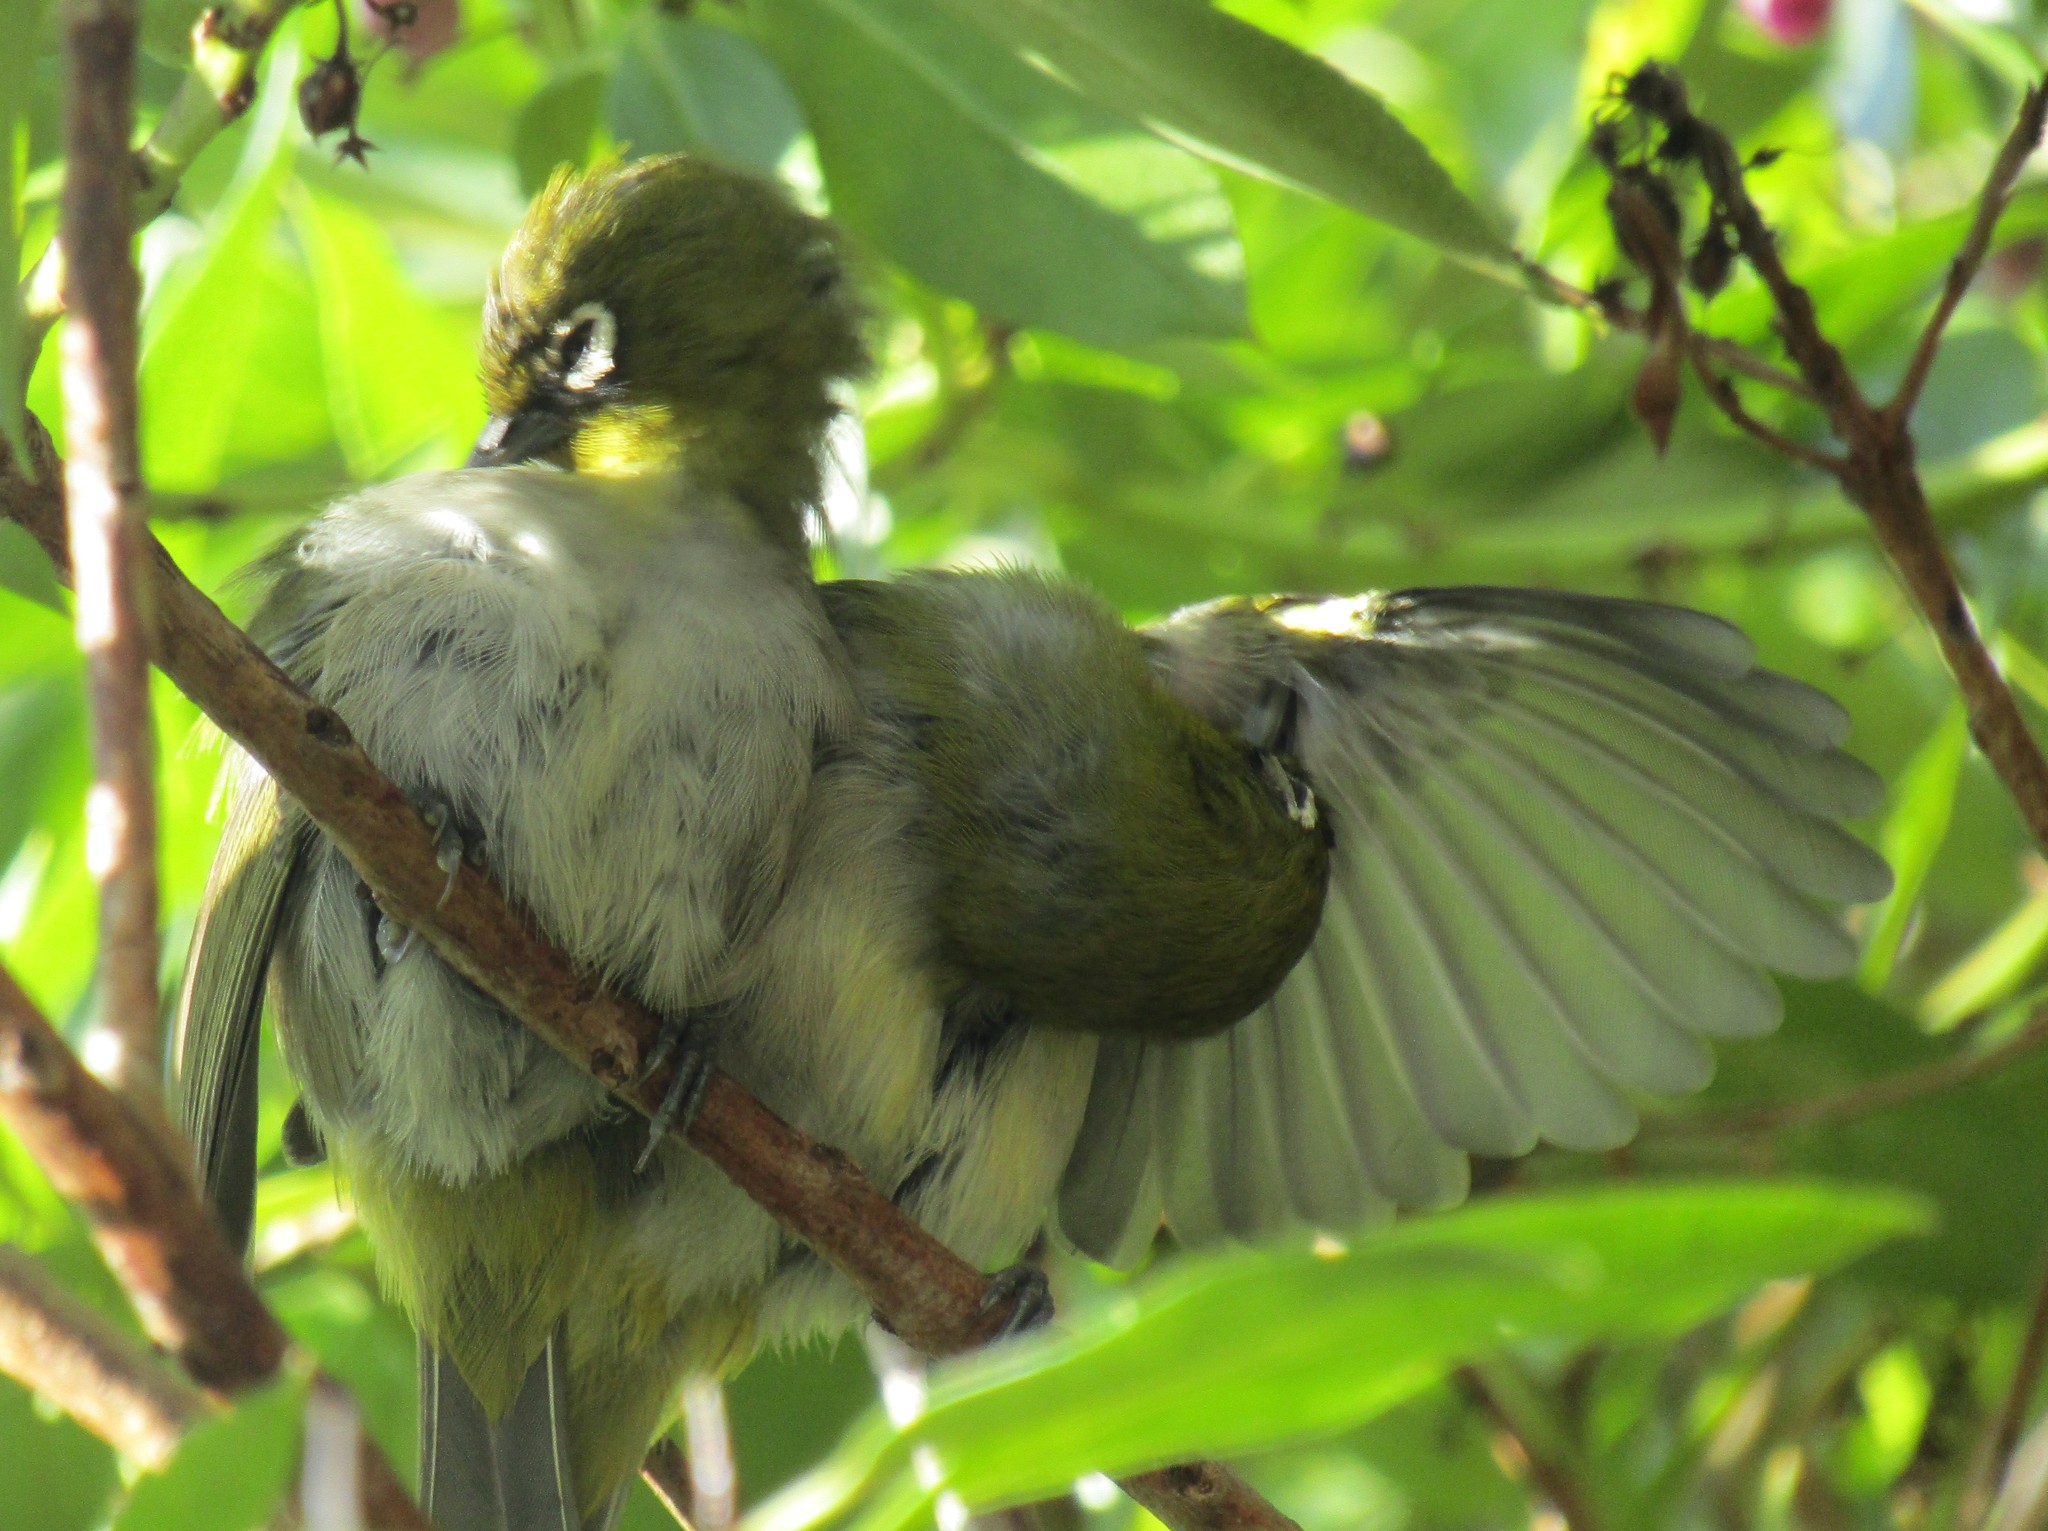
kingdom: Animalia
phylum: Chordata
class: Aves
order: Passeriformes
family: Zosteropidae
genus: Zosterops
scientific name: Zosterops virens
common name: Cape white-eye
